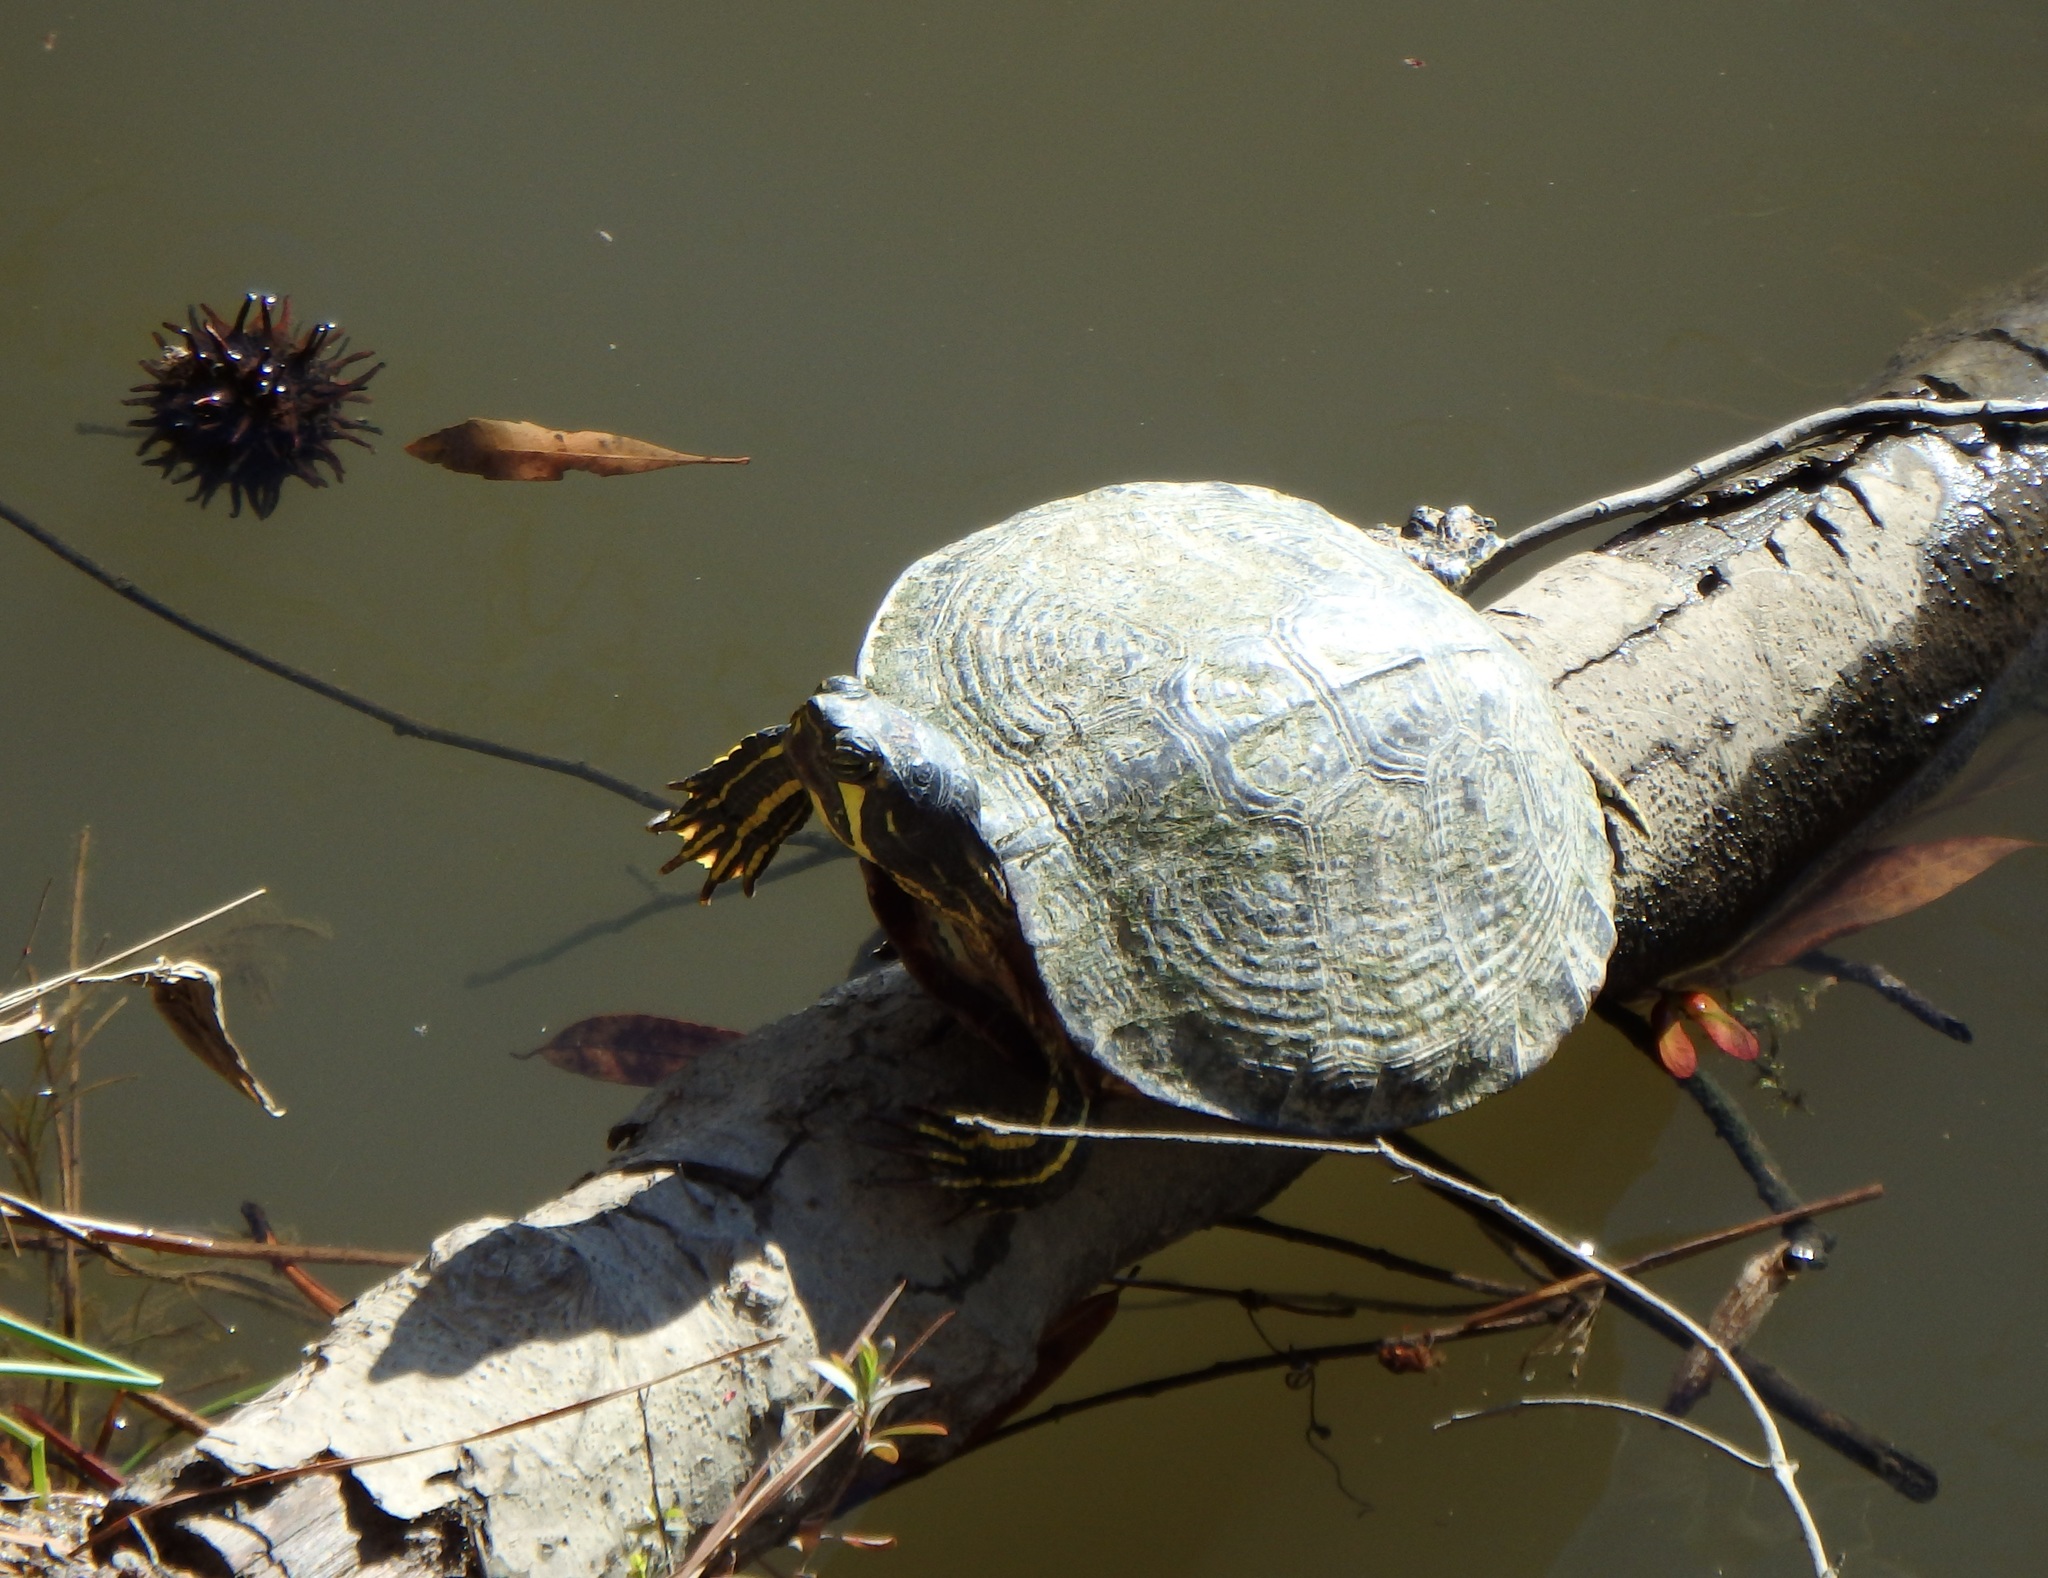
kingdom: Animalia
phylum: Chordata
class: Testudines
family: Emydidae
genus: Trachemys
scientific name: Trachemys scripta
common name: Slider
